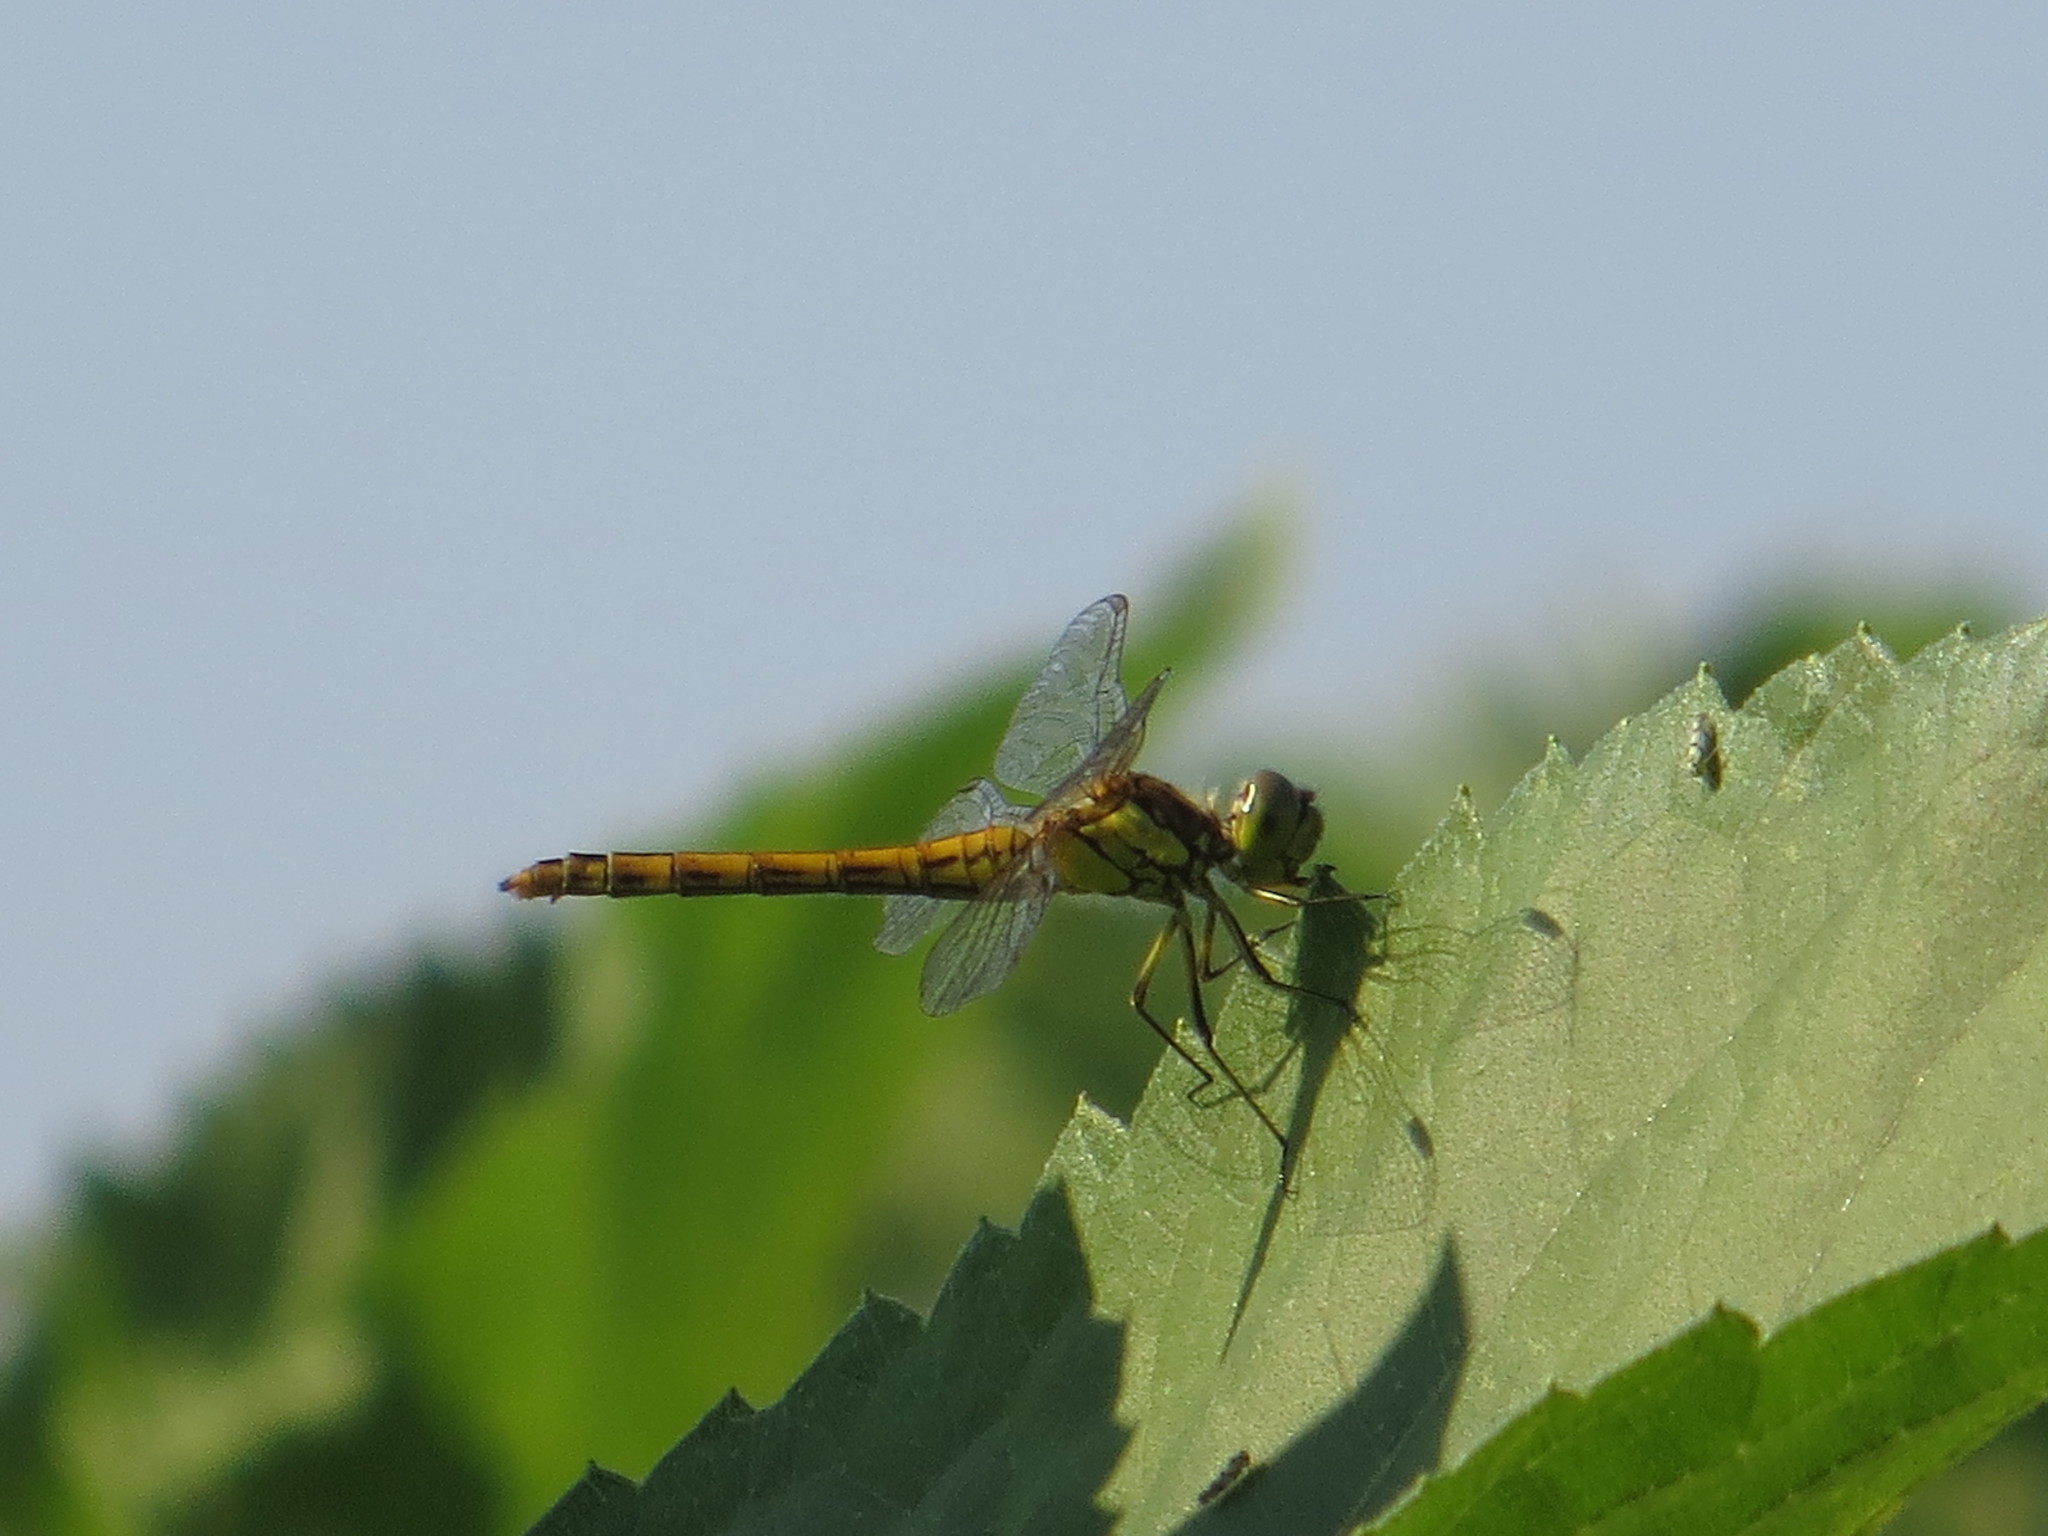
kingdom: Animalia
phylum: Arthropoda
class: Insecta
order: Odonata
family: Libellulidae
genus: Sympetrum
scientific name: Sympetrum vulgatum
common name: Vagrant darter
